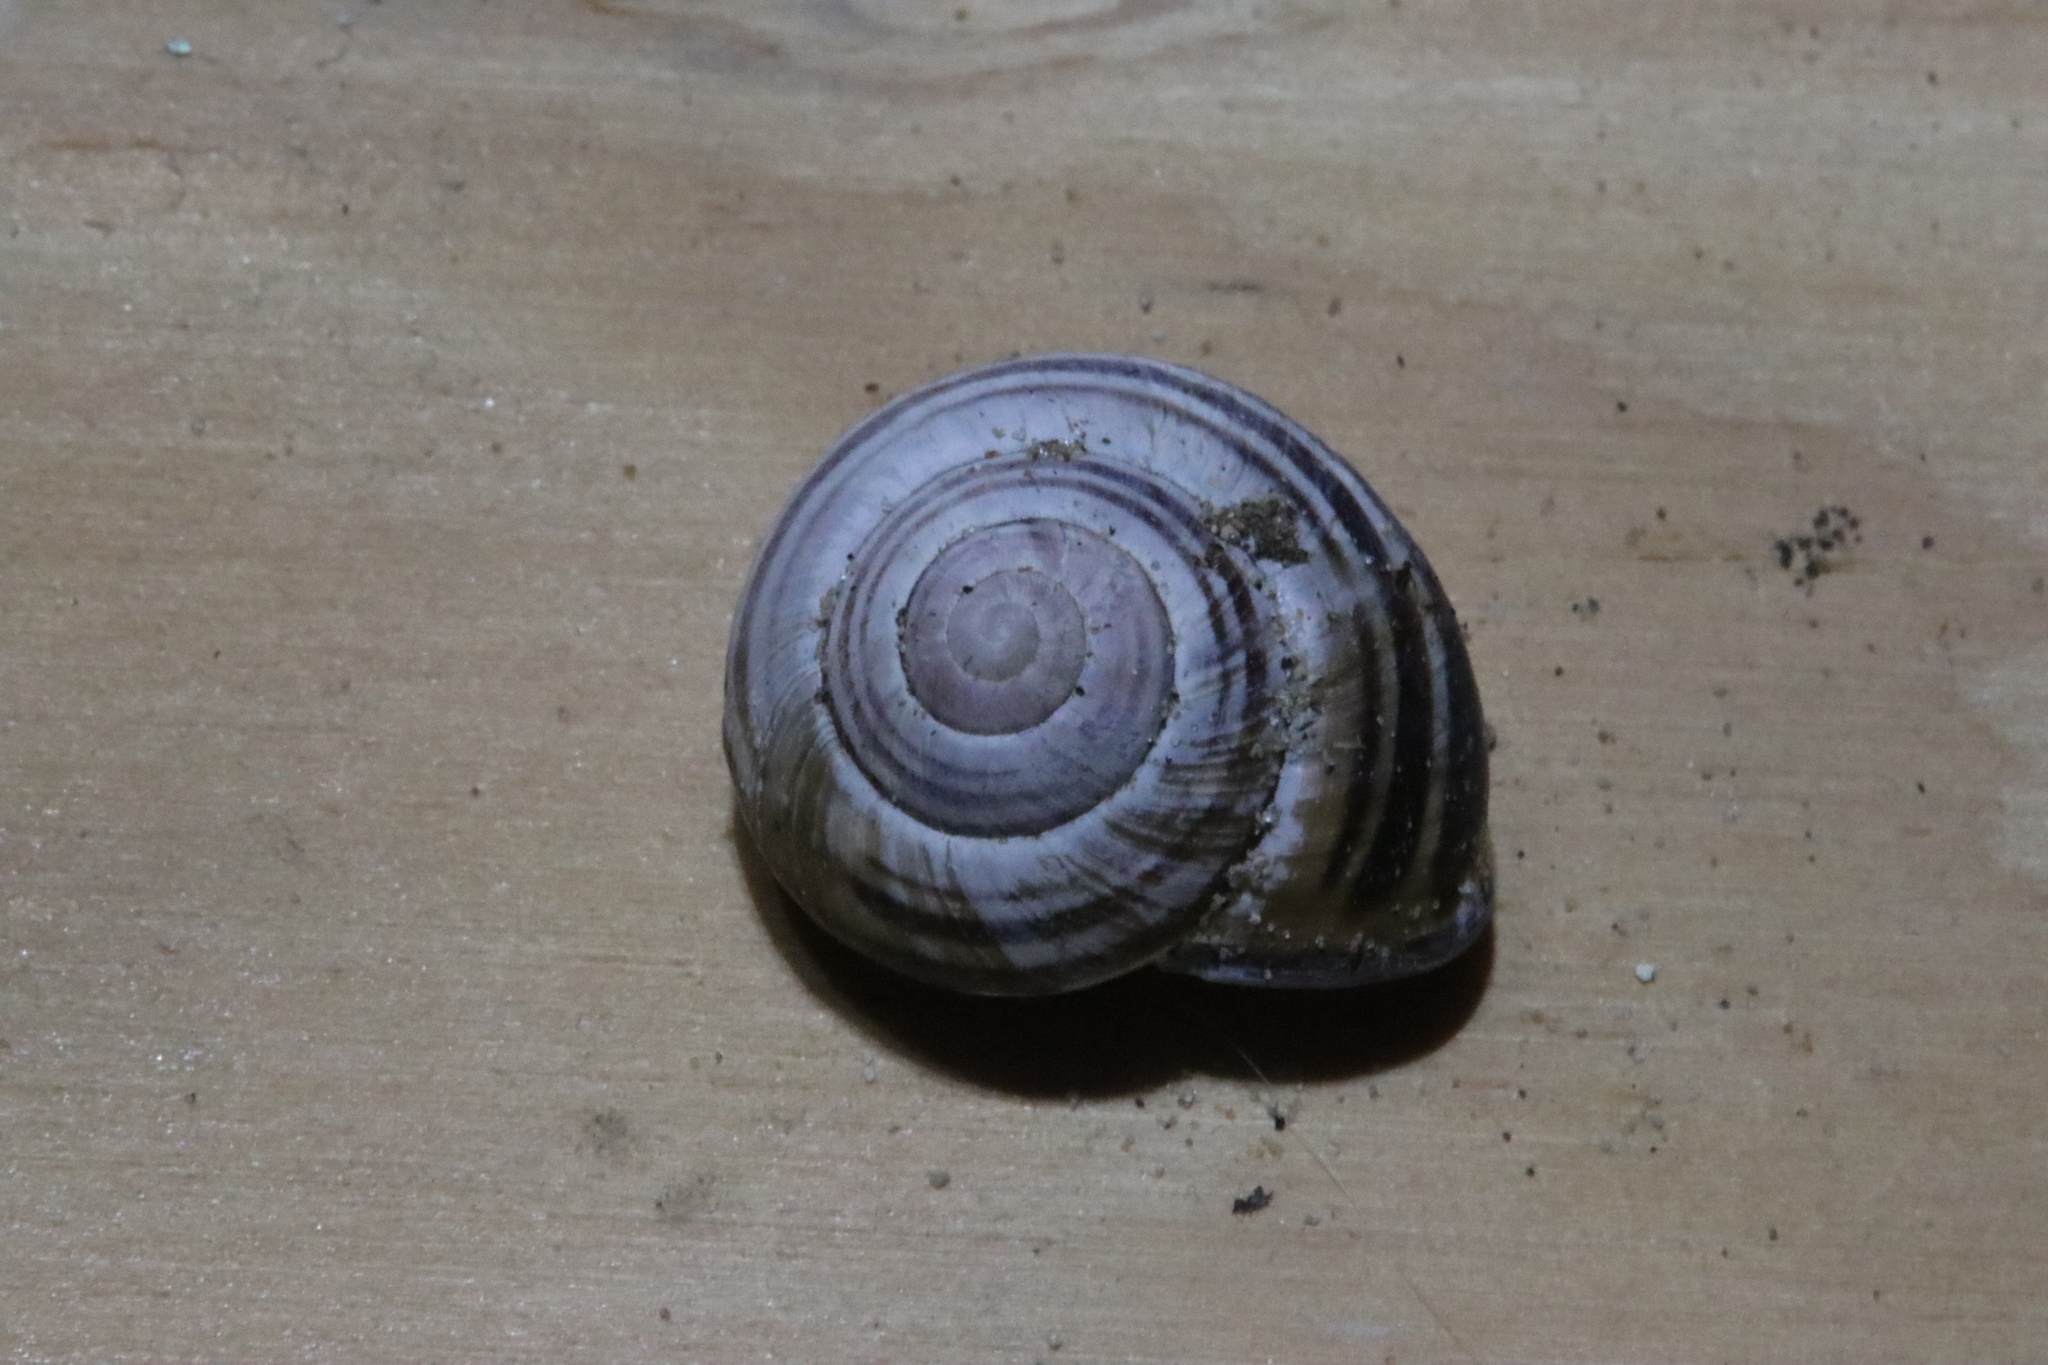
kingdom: Animalia
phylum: Mollusca
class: Gastropoda
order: Stylommatophora
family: Helicidae
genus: Cepaea
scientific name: Cepaea nemoralis
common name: Grovesnail
